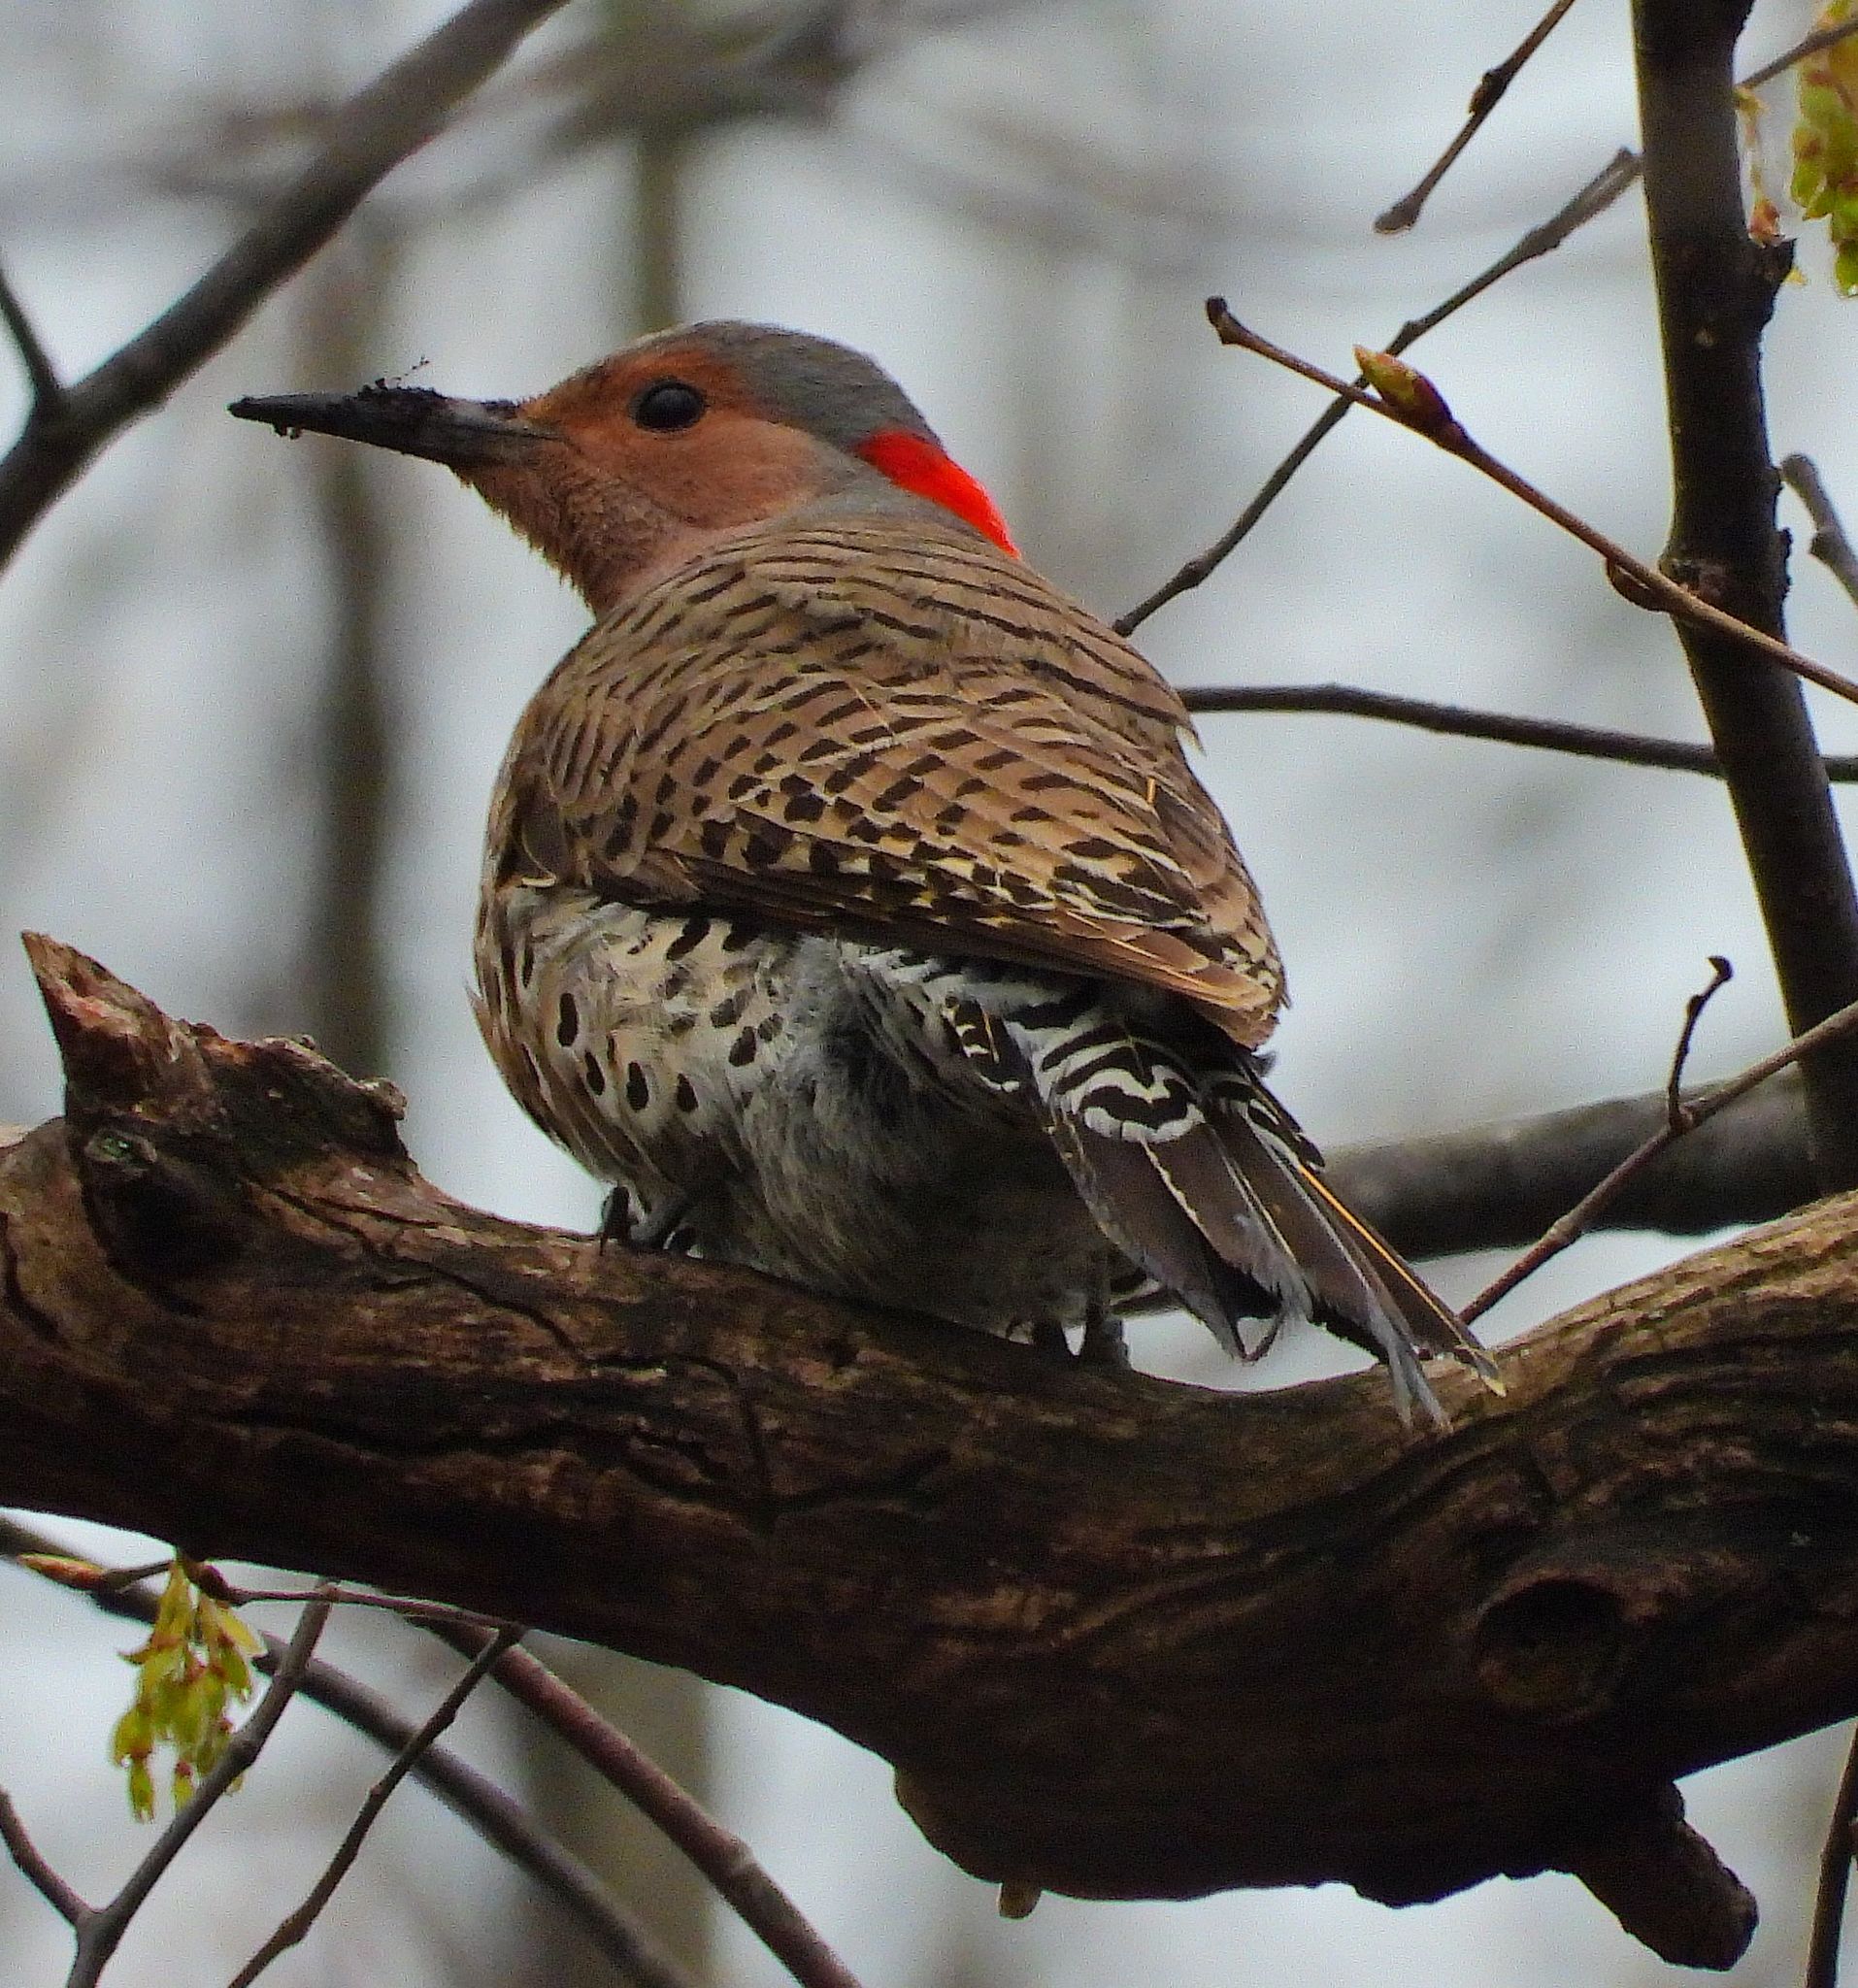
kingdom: Animalia
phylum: Chordata
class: Aves
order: Piciformes
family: Picidae
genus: Colaptes
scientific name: Colaptes auratus
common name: Northern flicker
